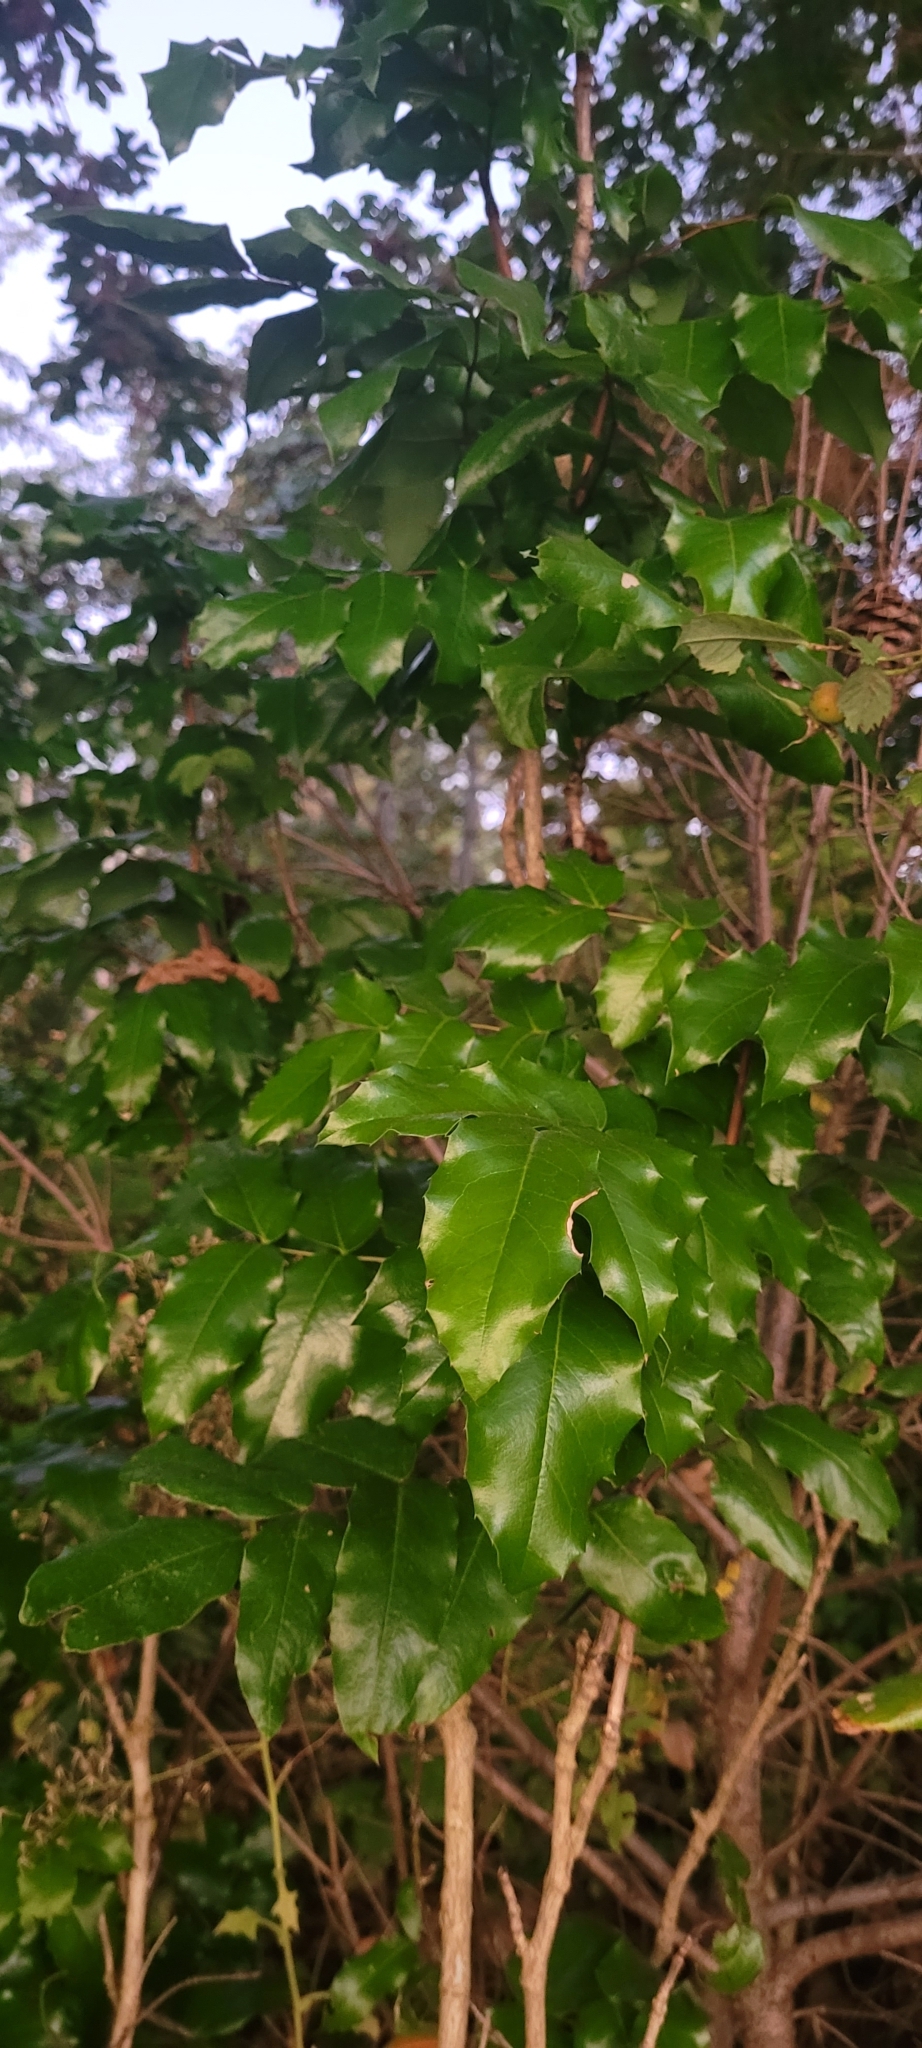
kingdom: Plantae
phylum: Tracheophyta
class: Magnoliopsida
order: Ranunculales
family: Berberidaceae
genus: Mahonia
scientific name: Mahonia aquifolium
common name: Oregon-grape
